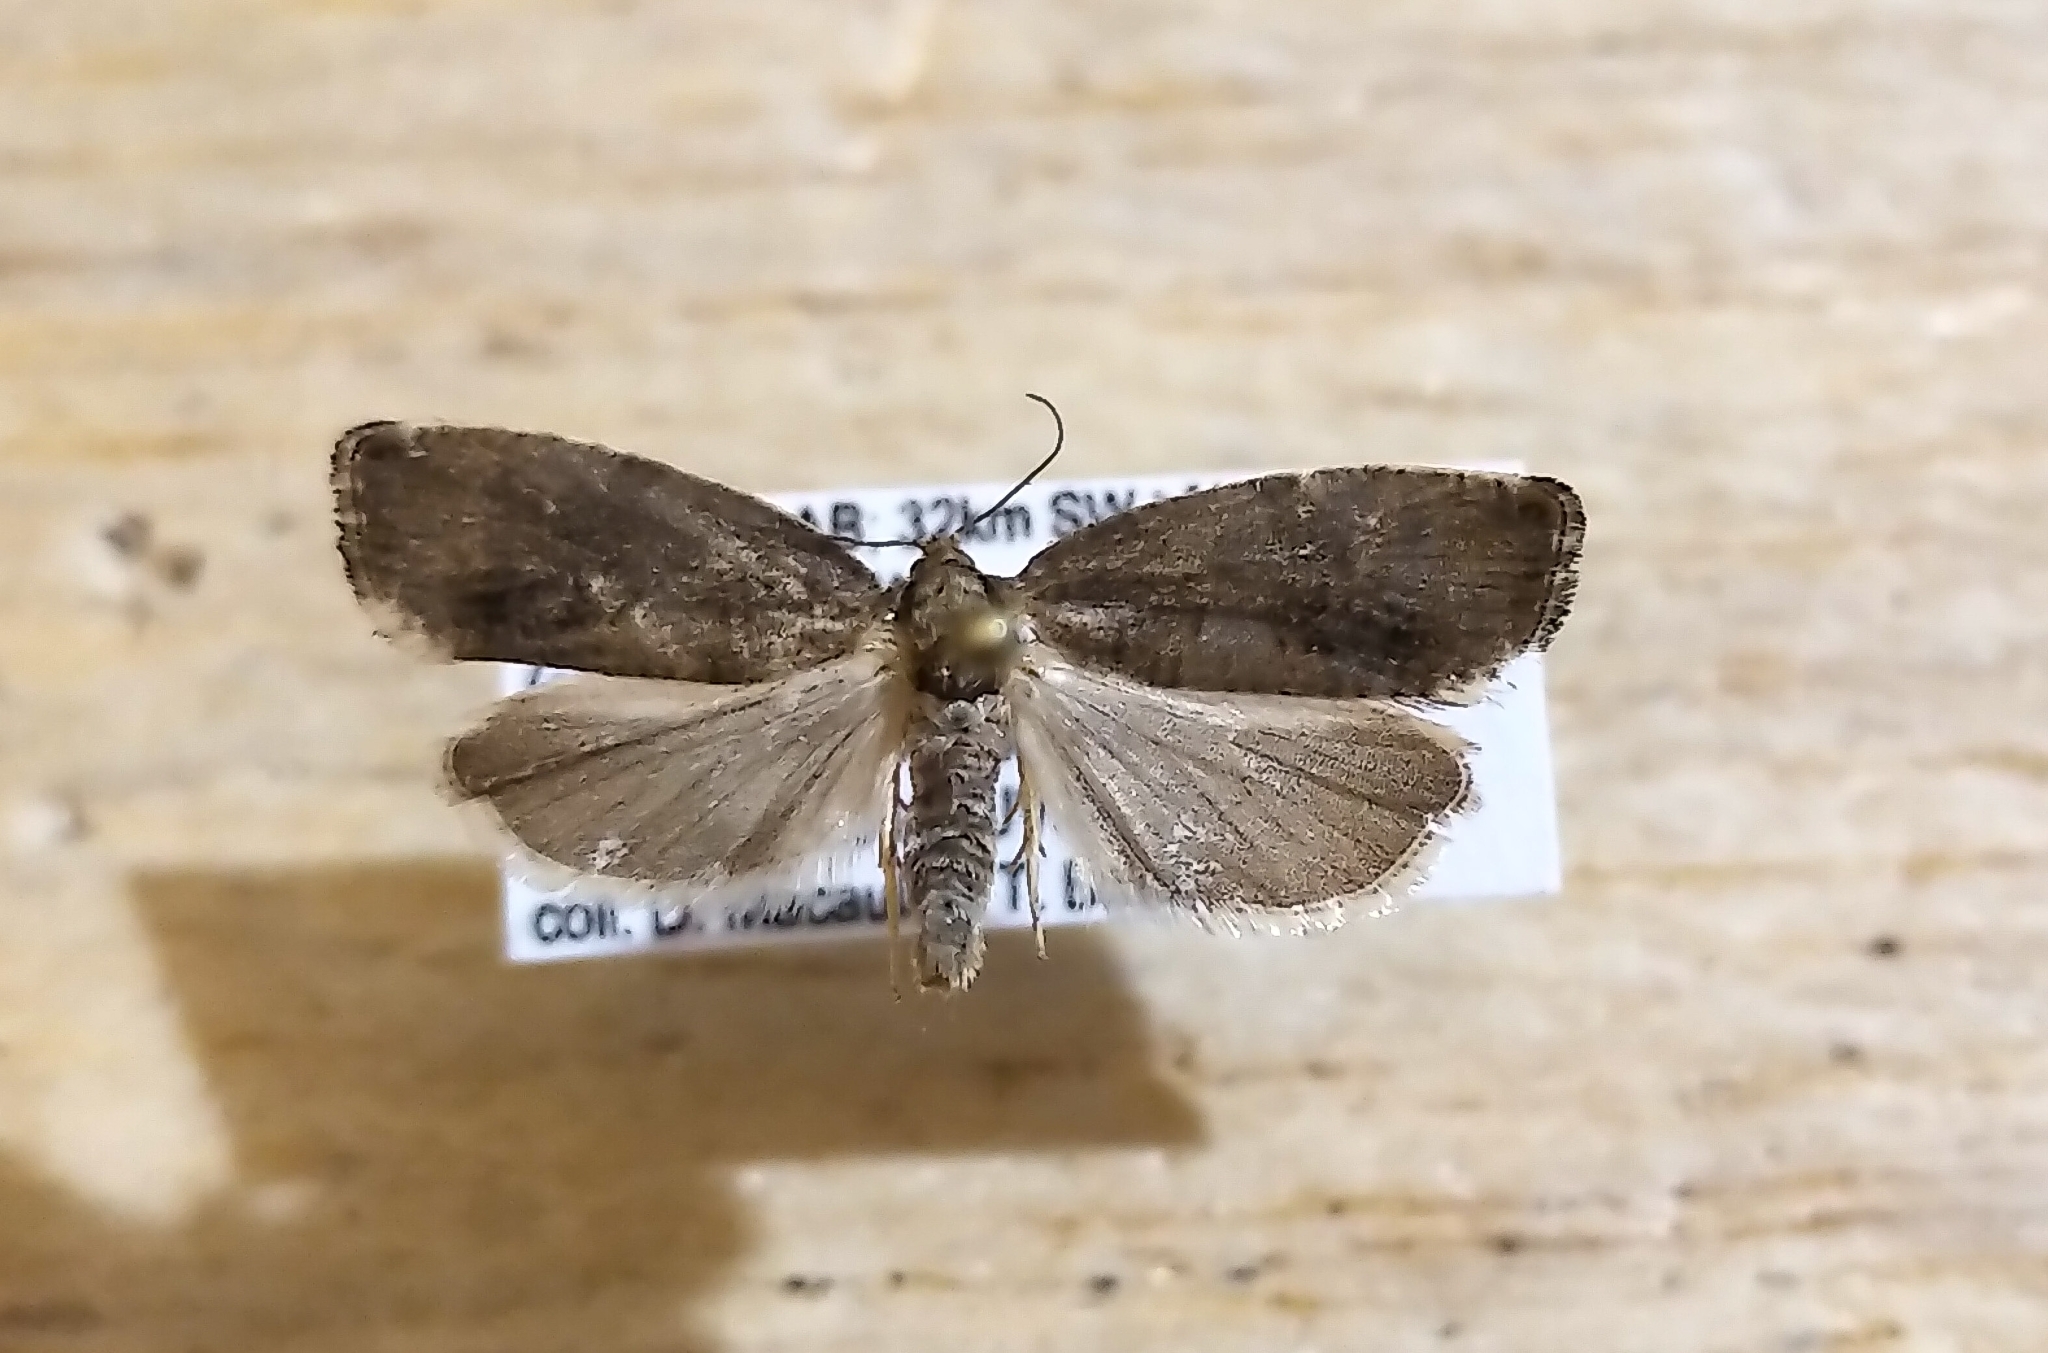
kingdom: Animalia
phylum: Arthropoda
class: Insecta
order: Lepidoptera
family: Tortricidae
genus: Pseudosciaphila
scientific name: Pseudosciaphila duplex
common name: Poplar leafroller moth
